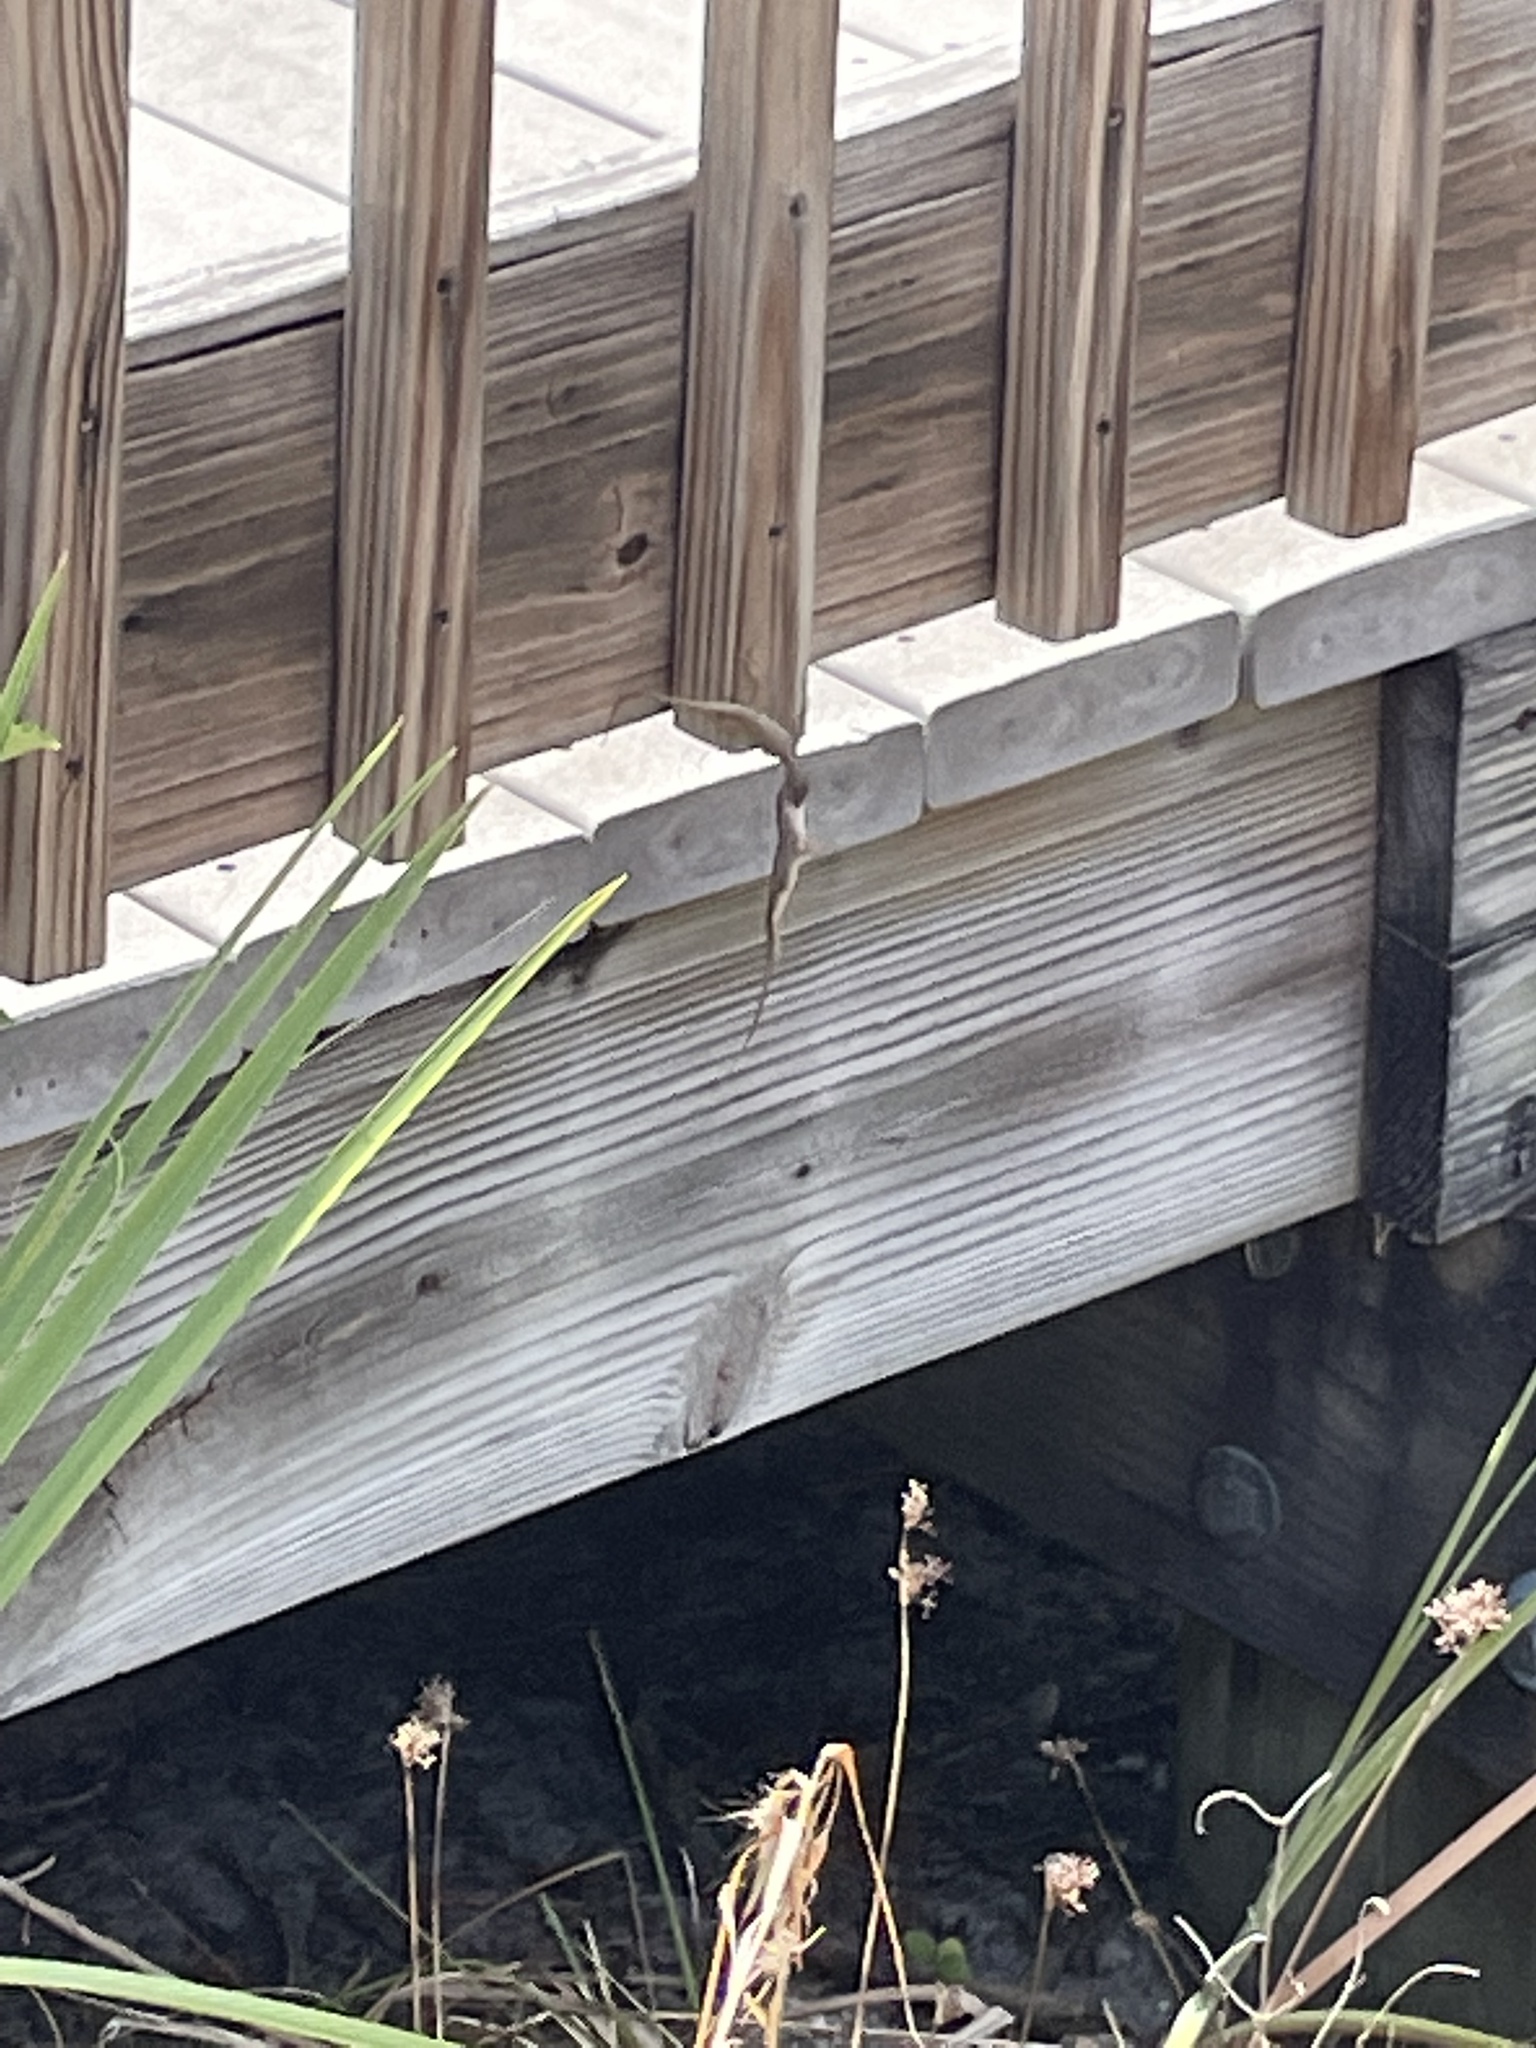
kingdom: Animalia
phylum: Chordata
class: Squamata
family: Dactyloidae
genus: Anolis
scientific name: Anolis sagrei
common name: Brown anole
